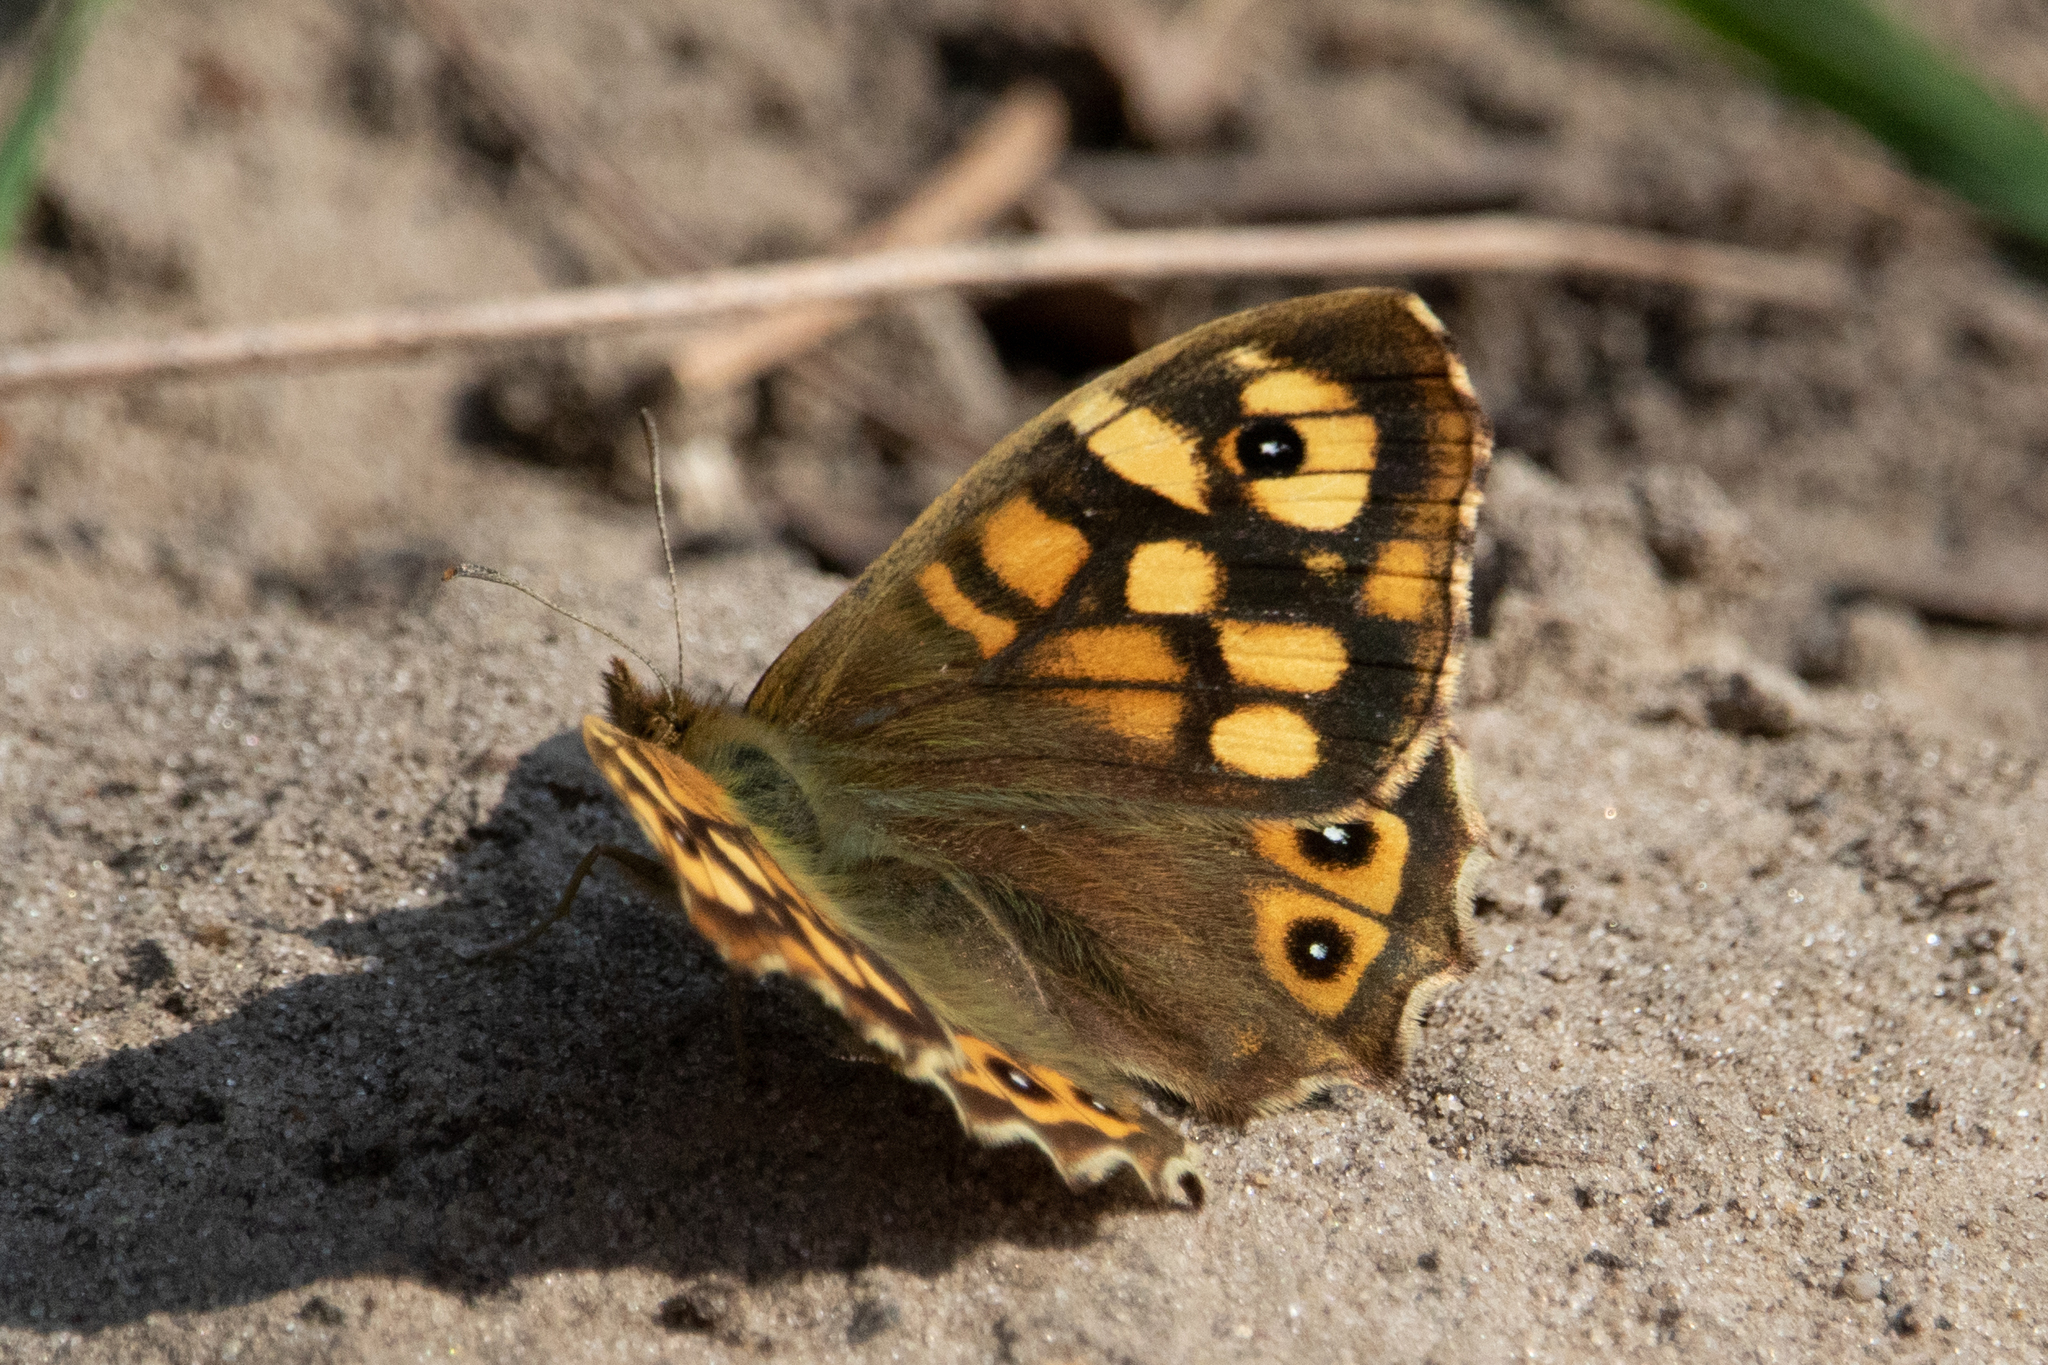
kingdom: Animalia
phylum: Arthropoda
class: Insecta
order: Lepidoptera
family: Nymphalidae
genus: Pararge
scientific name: Pararge aegeria
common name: Speckled wood
